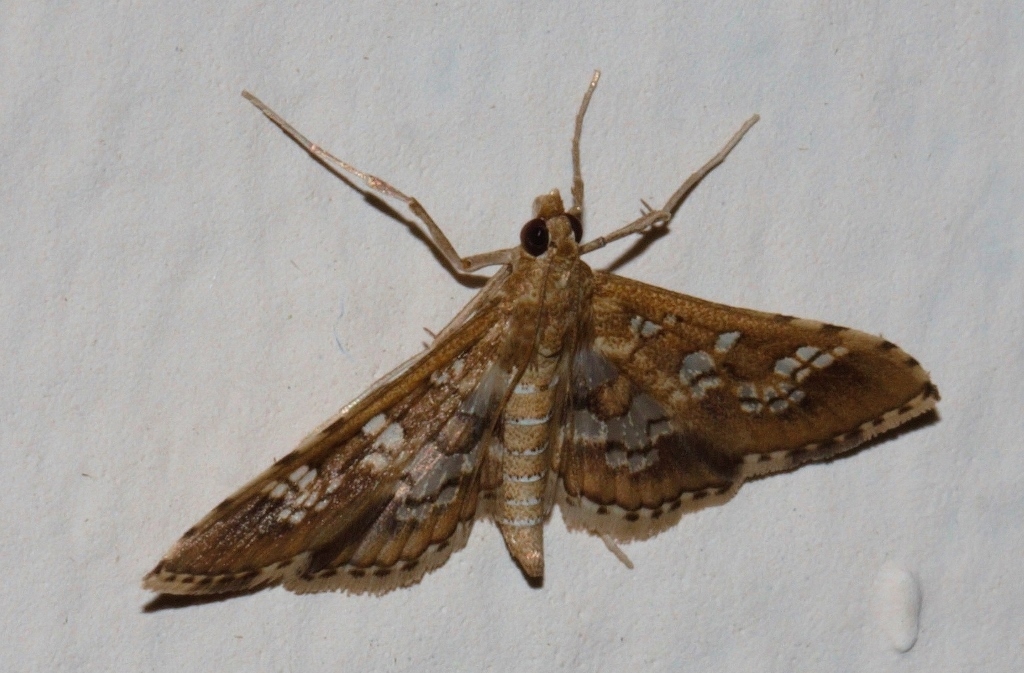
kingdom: Animalia
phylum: Arthropoda
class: Insecta
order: Lepidoptera
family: Crambidae
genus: Sameodes
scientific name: Sameodes cancellalis
